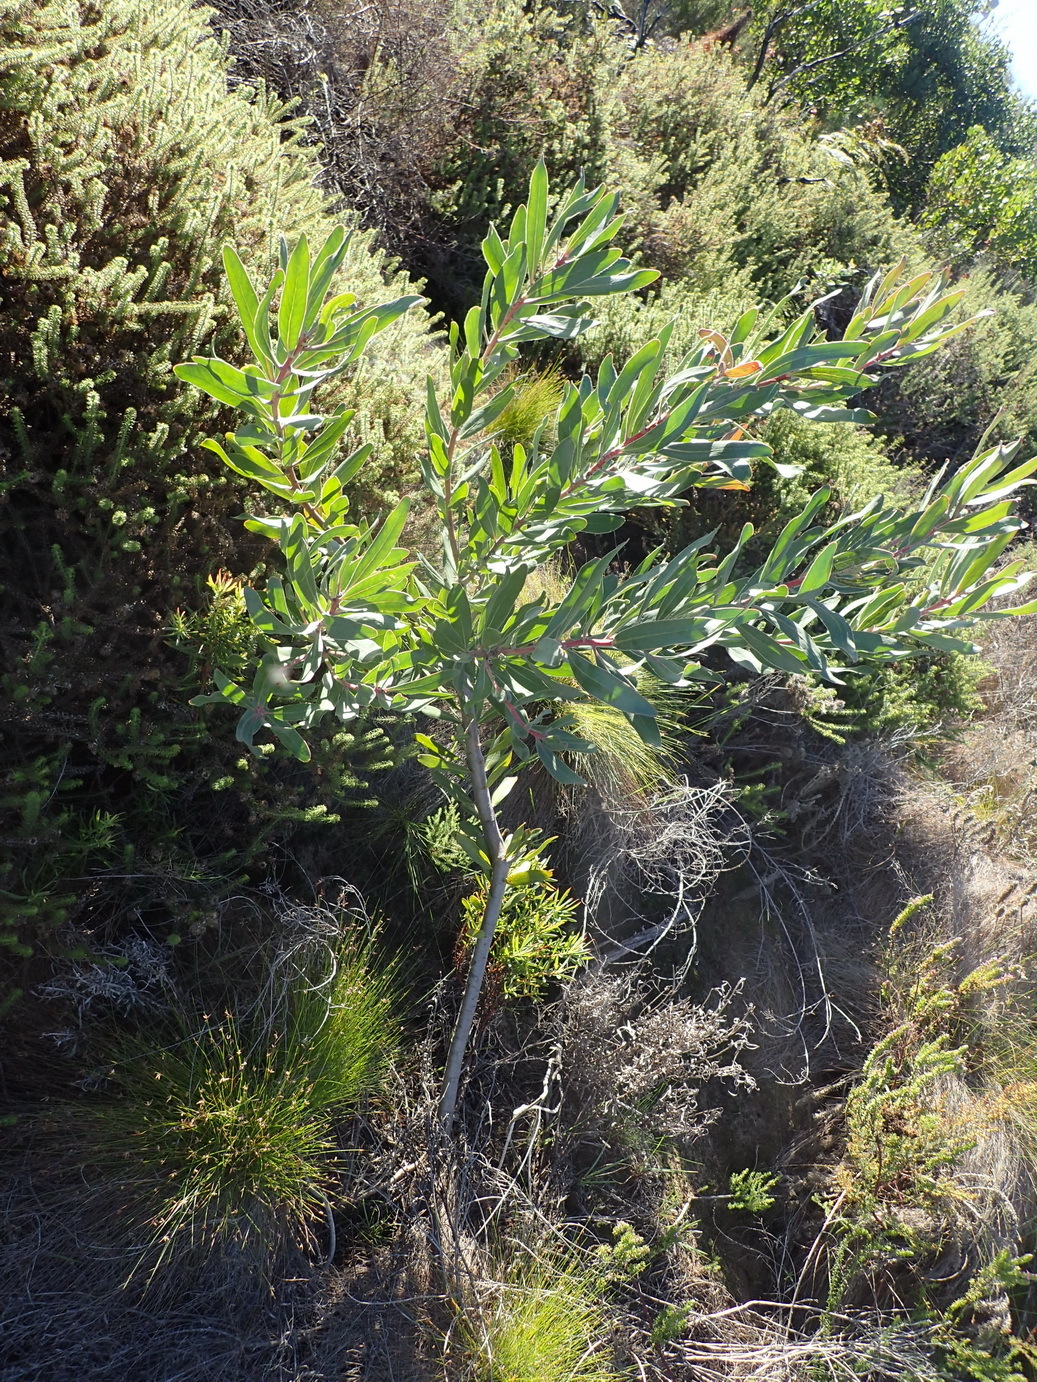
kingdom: Plantae
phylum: Tracheophyta
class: Magnoliopsida
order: Proteales
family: Proteaceae
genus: Protea
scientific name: Protea neriifolia
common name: Blue sugarbush
